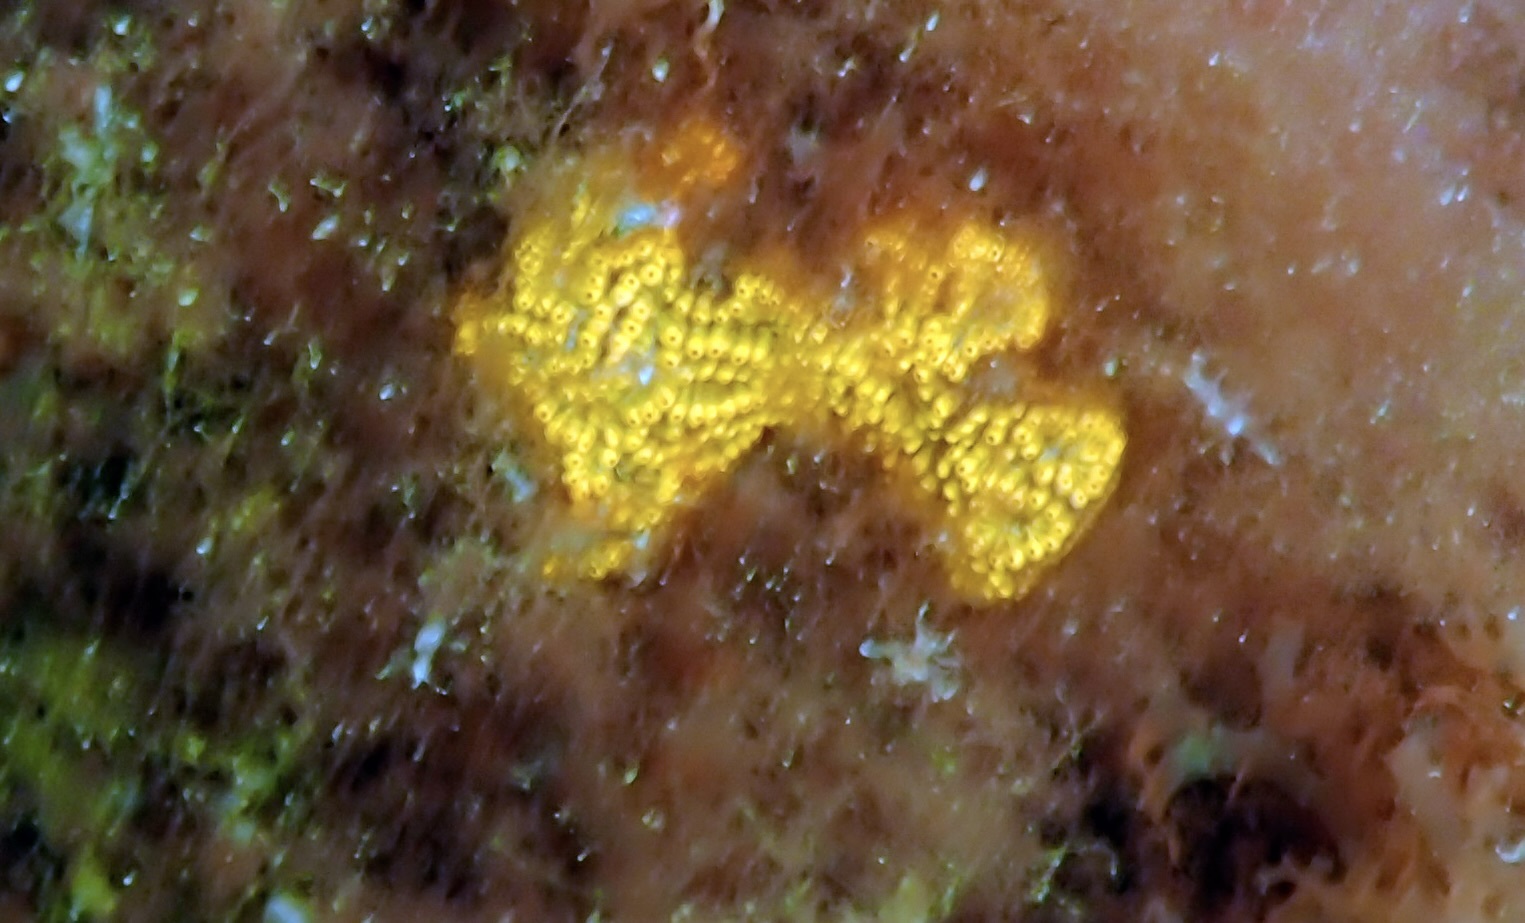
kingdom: Animalia
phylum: Chordata
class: Ascidiacea
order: Stolidobranchia
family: Styelidae
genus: Botrylloides
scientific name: Botrylloides diegensis
